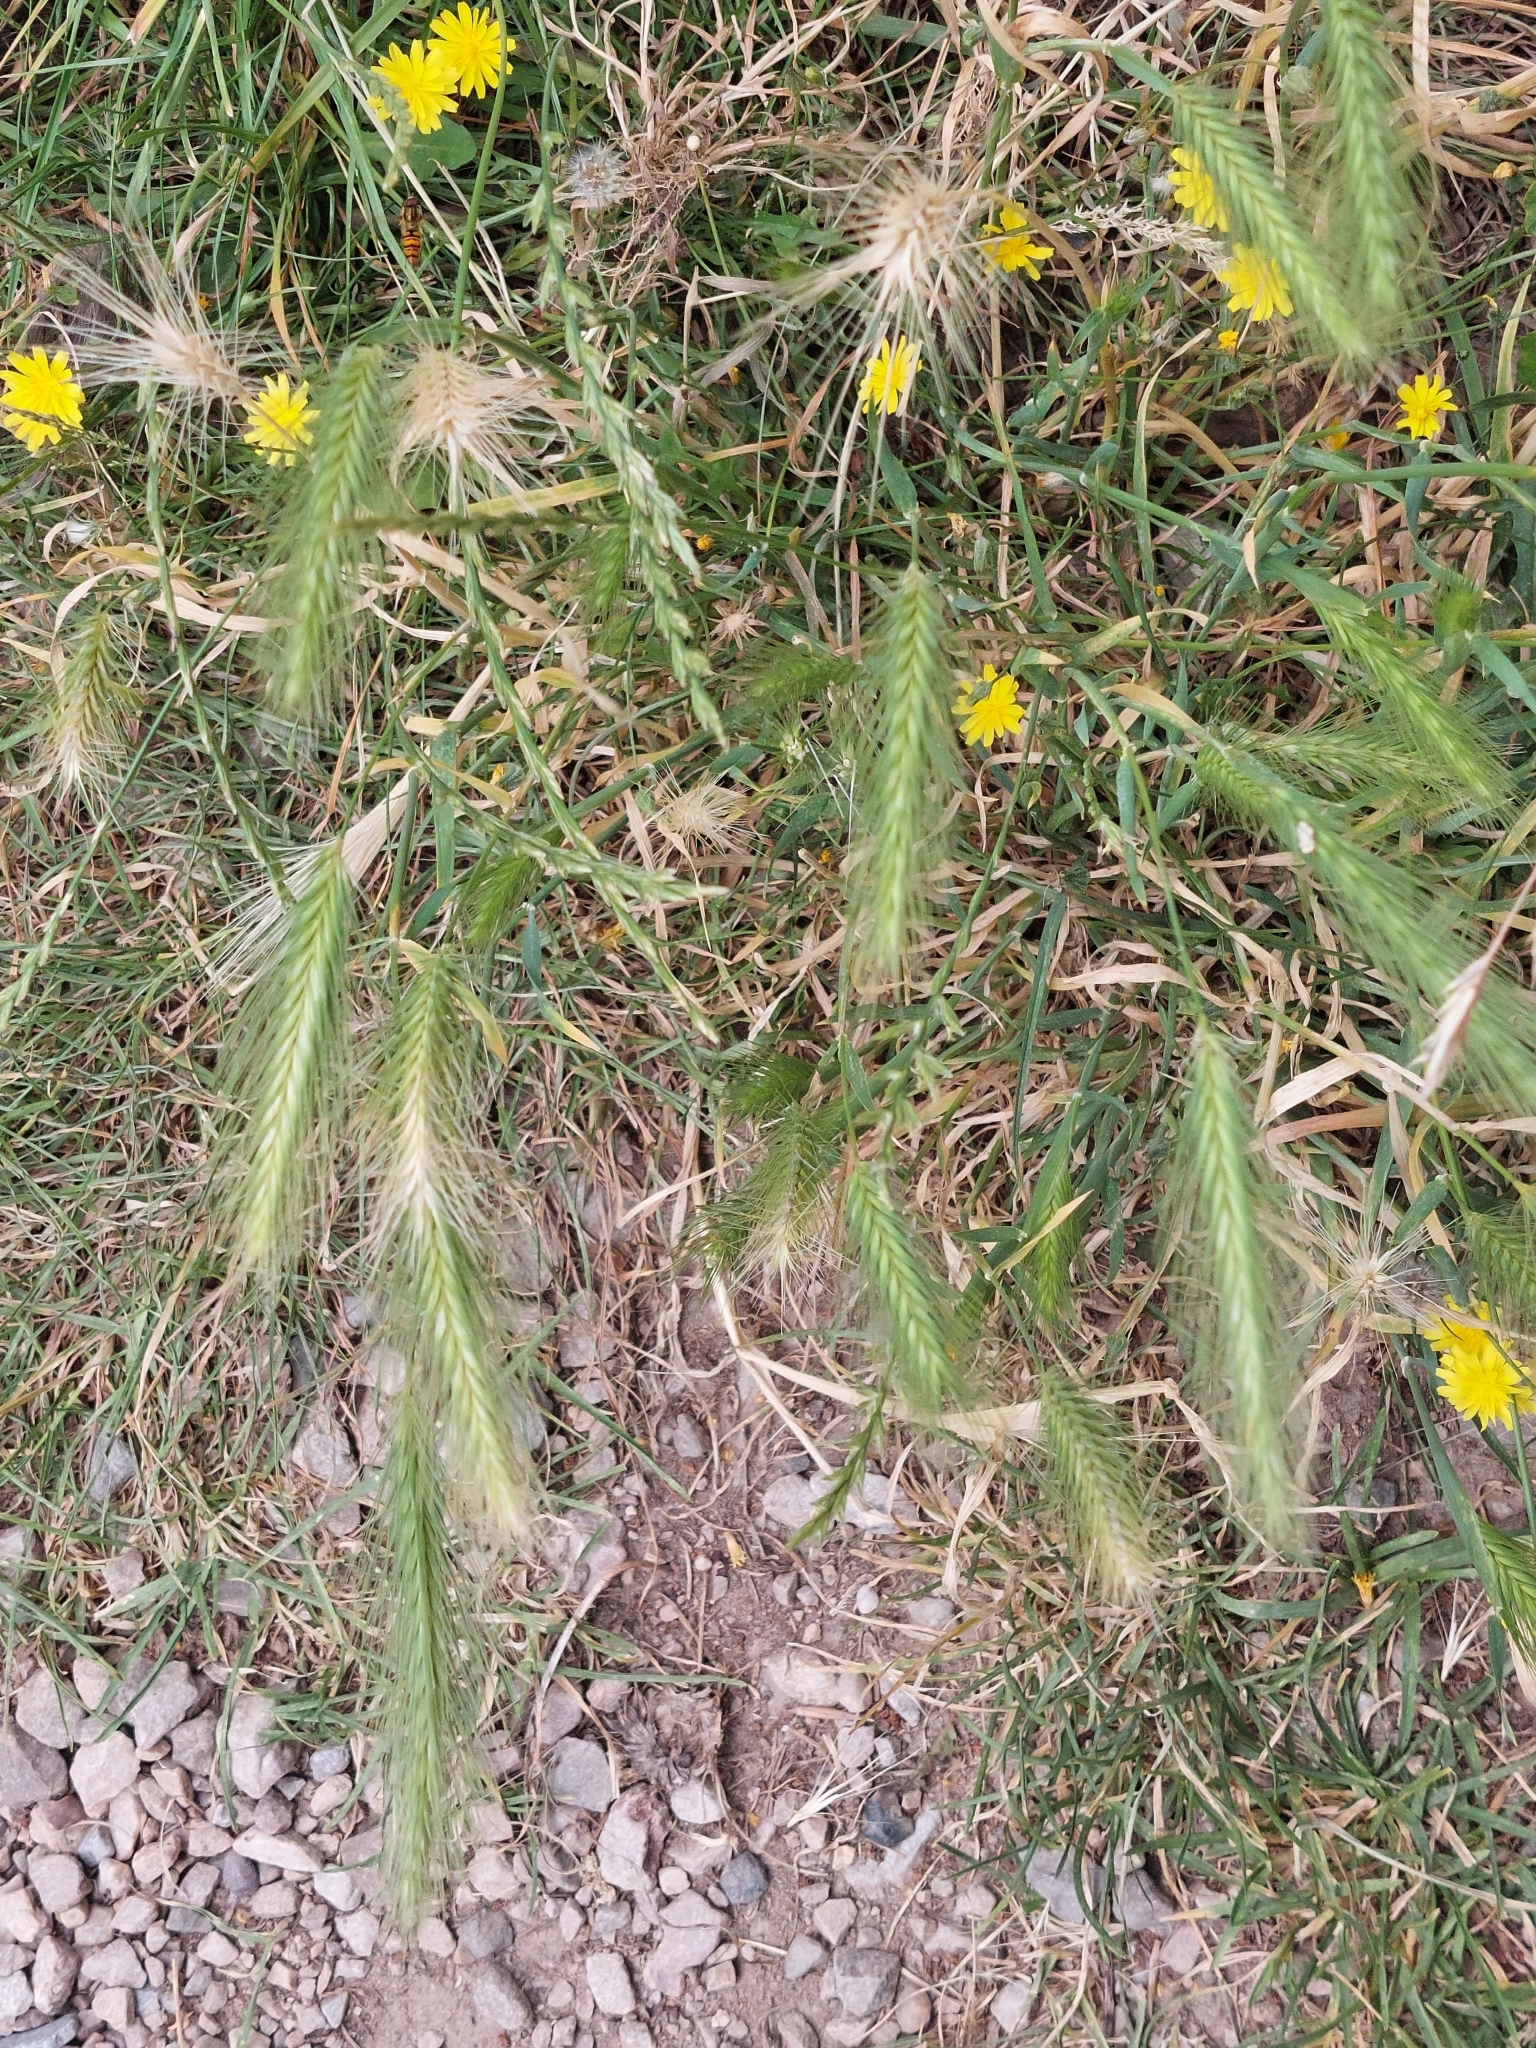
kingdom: Plantae
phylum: Tracheophyta
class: Liliopsida
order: Poales
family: Poaceae
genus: Hordeum
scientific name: Hordeum murinum
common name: Wall barley
